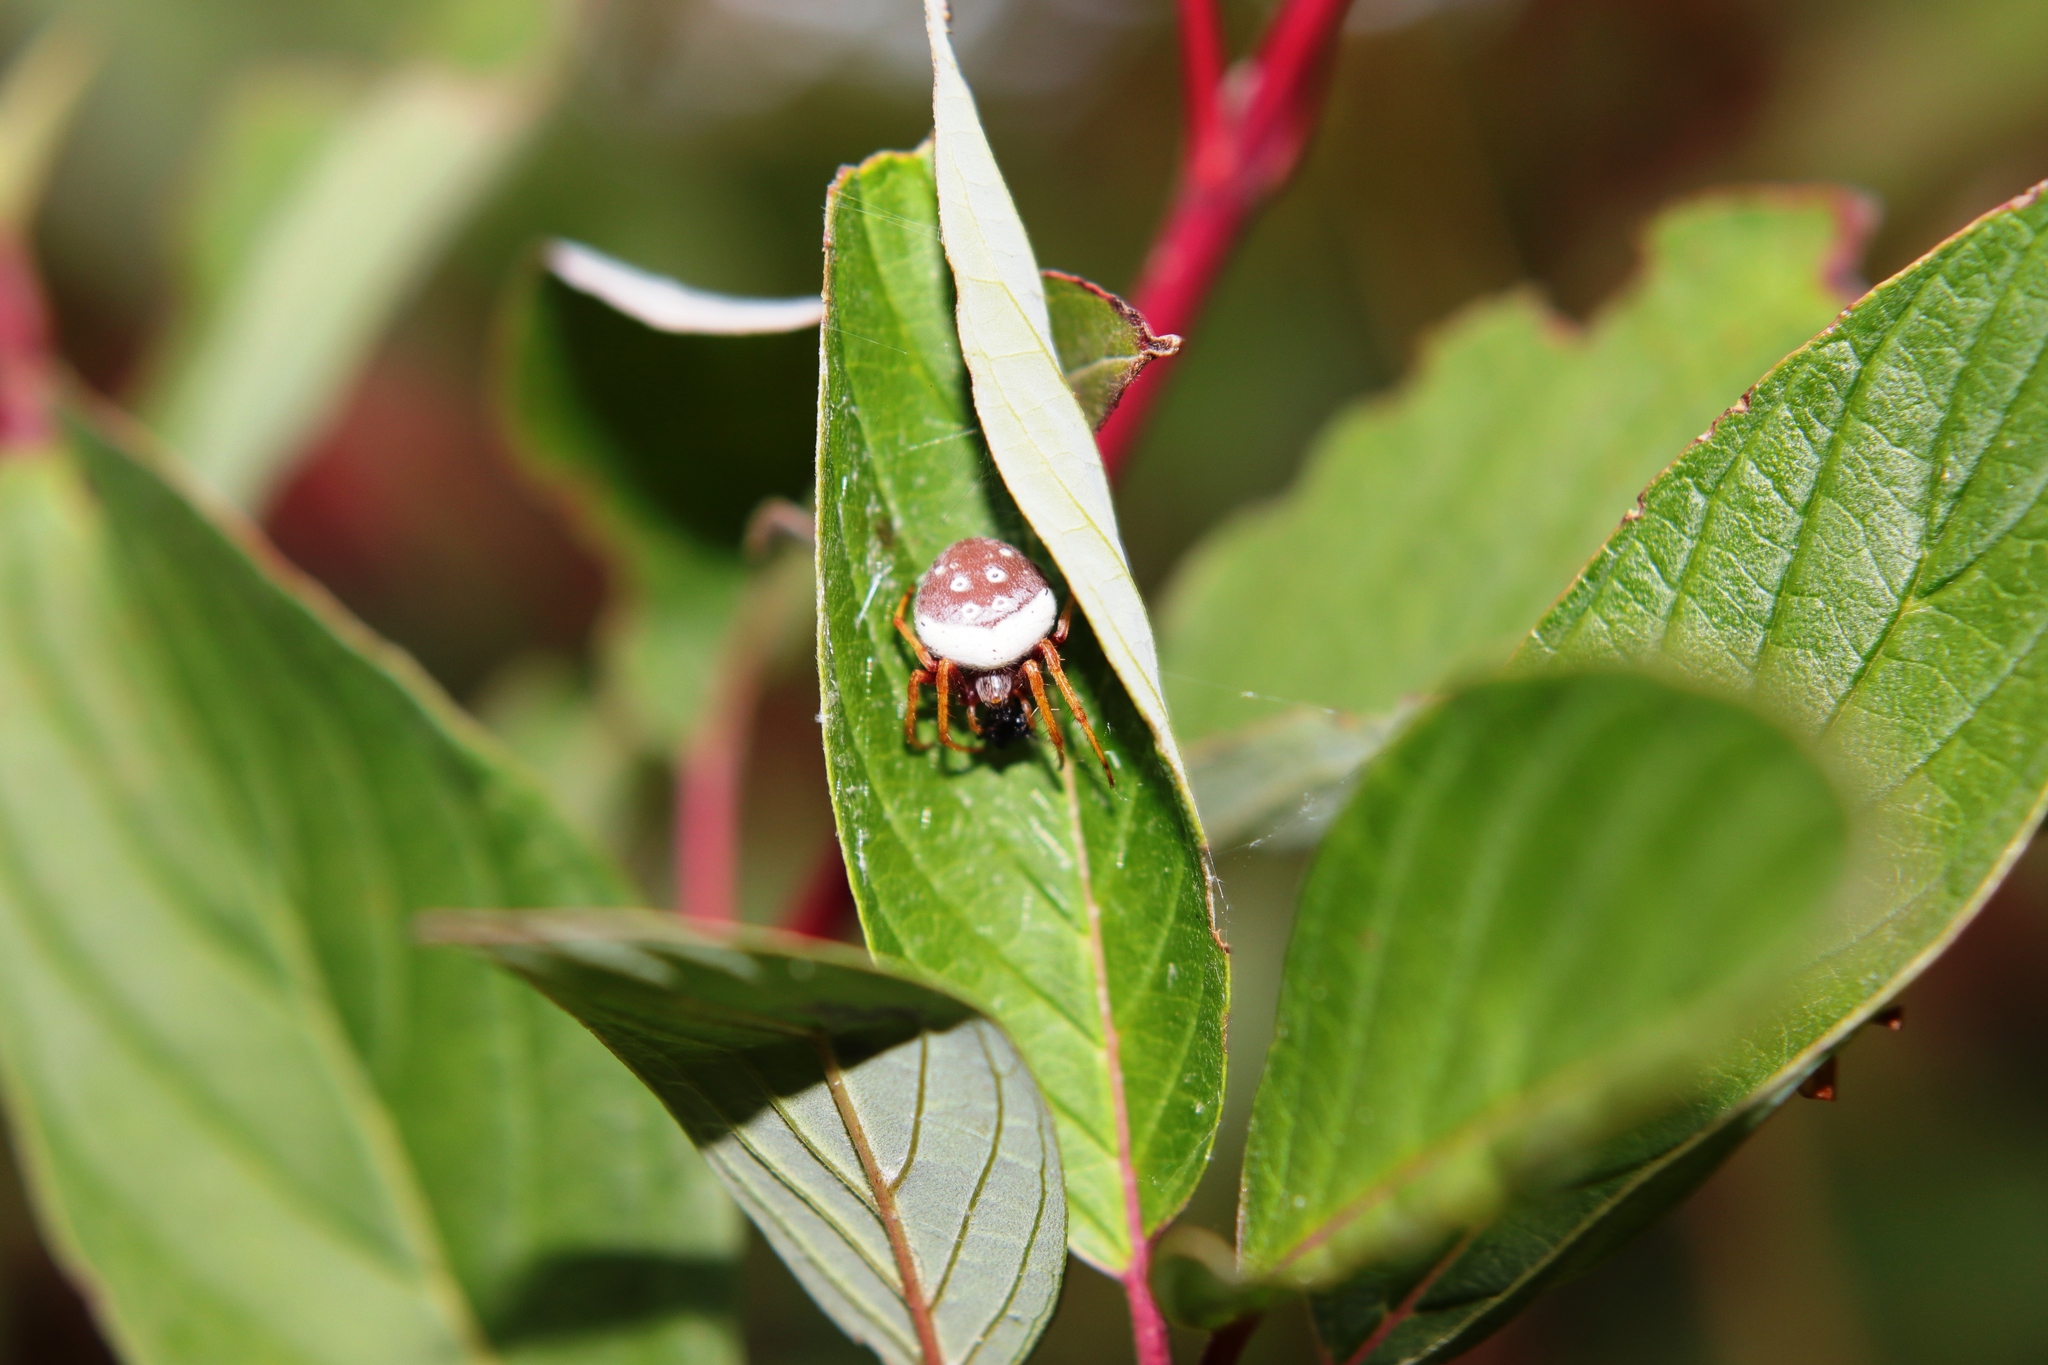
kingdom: Animalia
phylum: Arthropoda
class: Arachnida
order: Araneae
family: Araneidae
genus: Zealaranea
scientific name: Zealaranea prina
